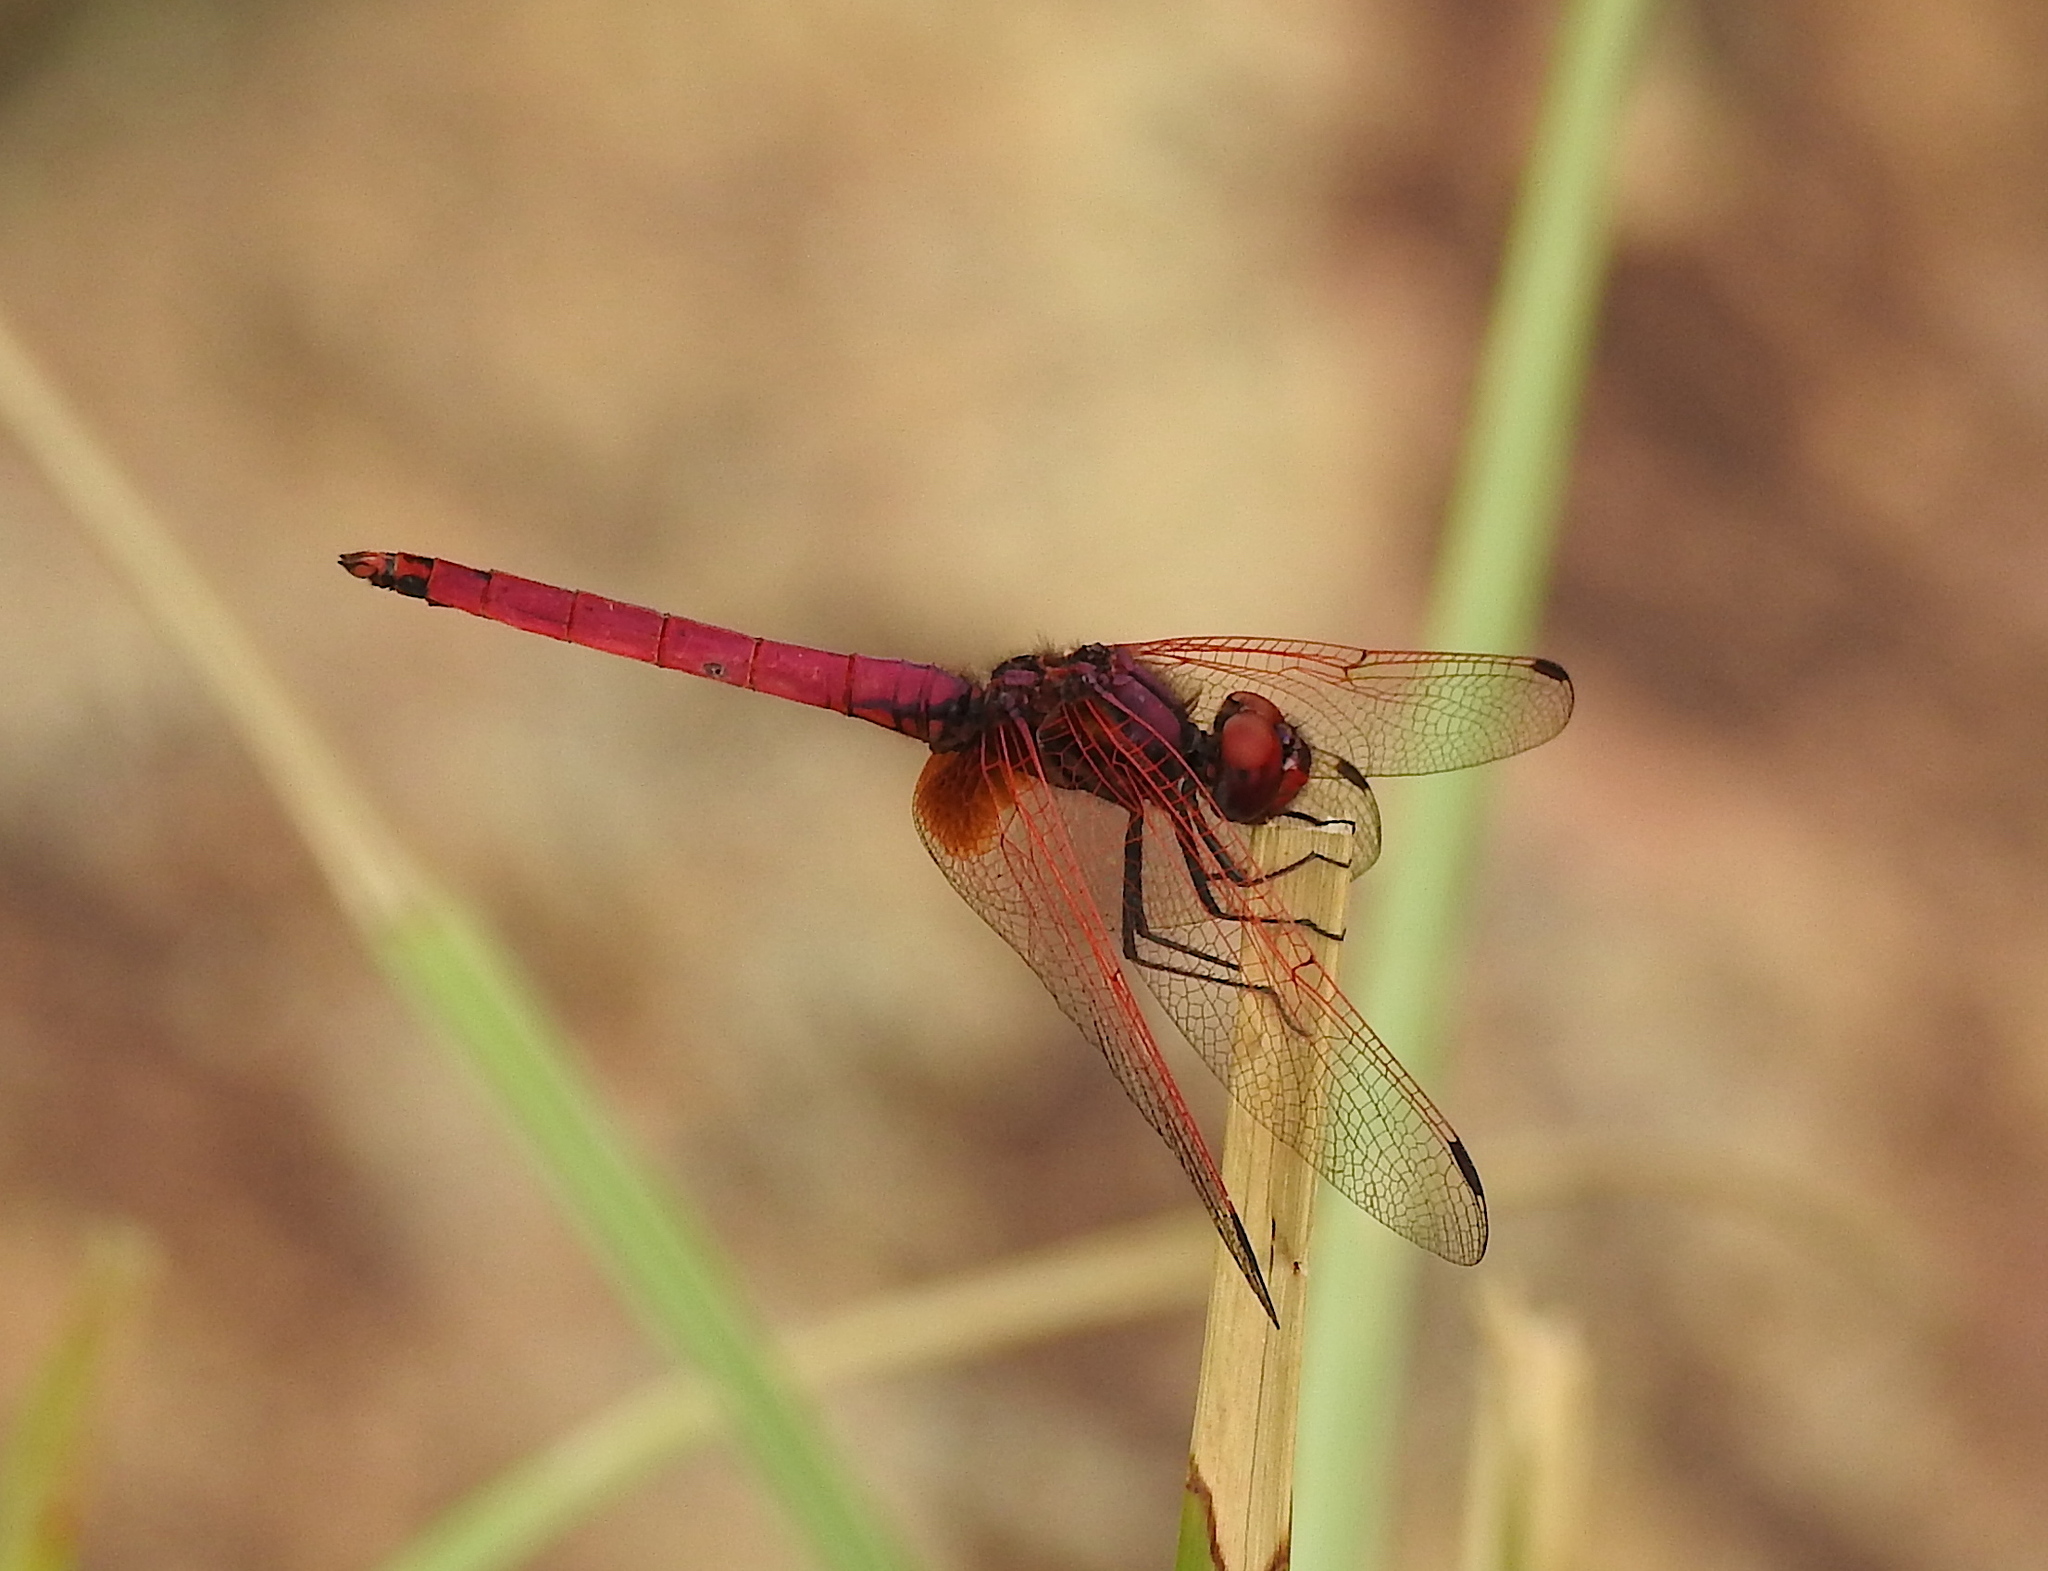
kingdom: Animalia
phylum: Arthropoda
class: Insecta
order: Odonata
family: Libellulidae
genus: Trithemis
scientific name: Trithemis aurora
